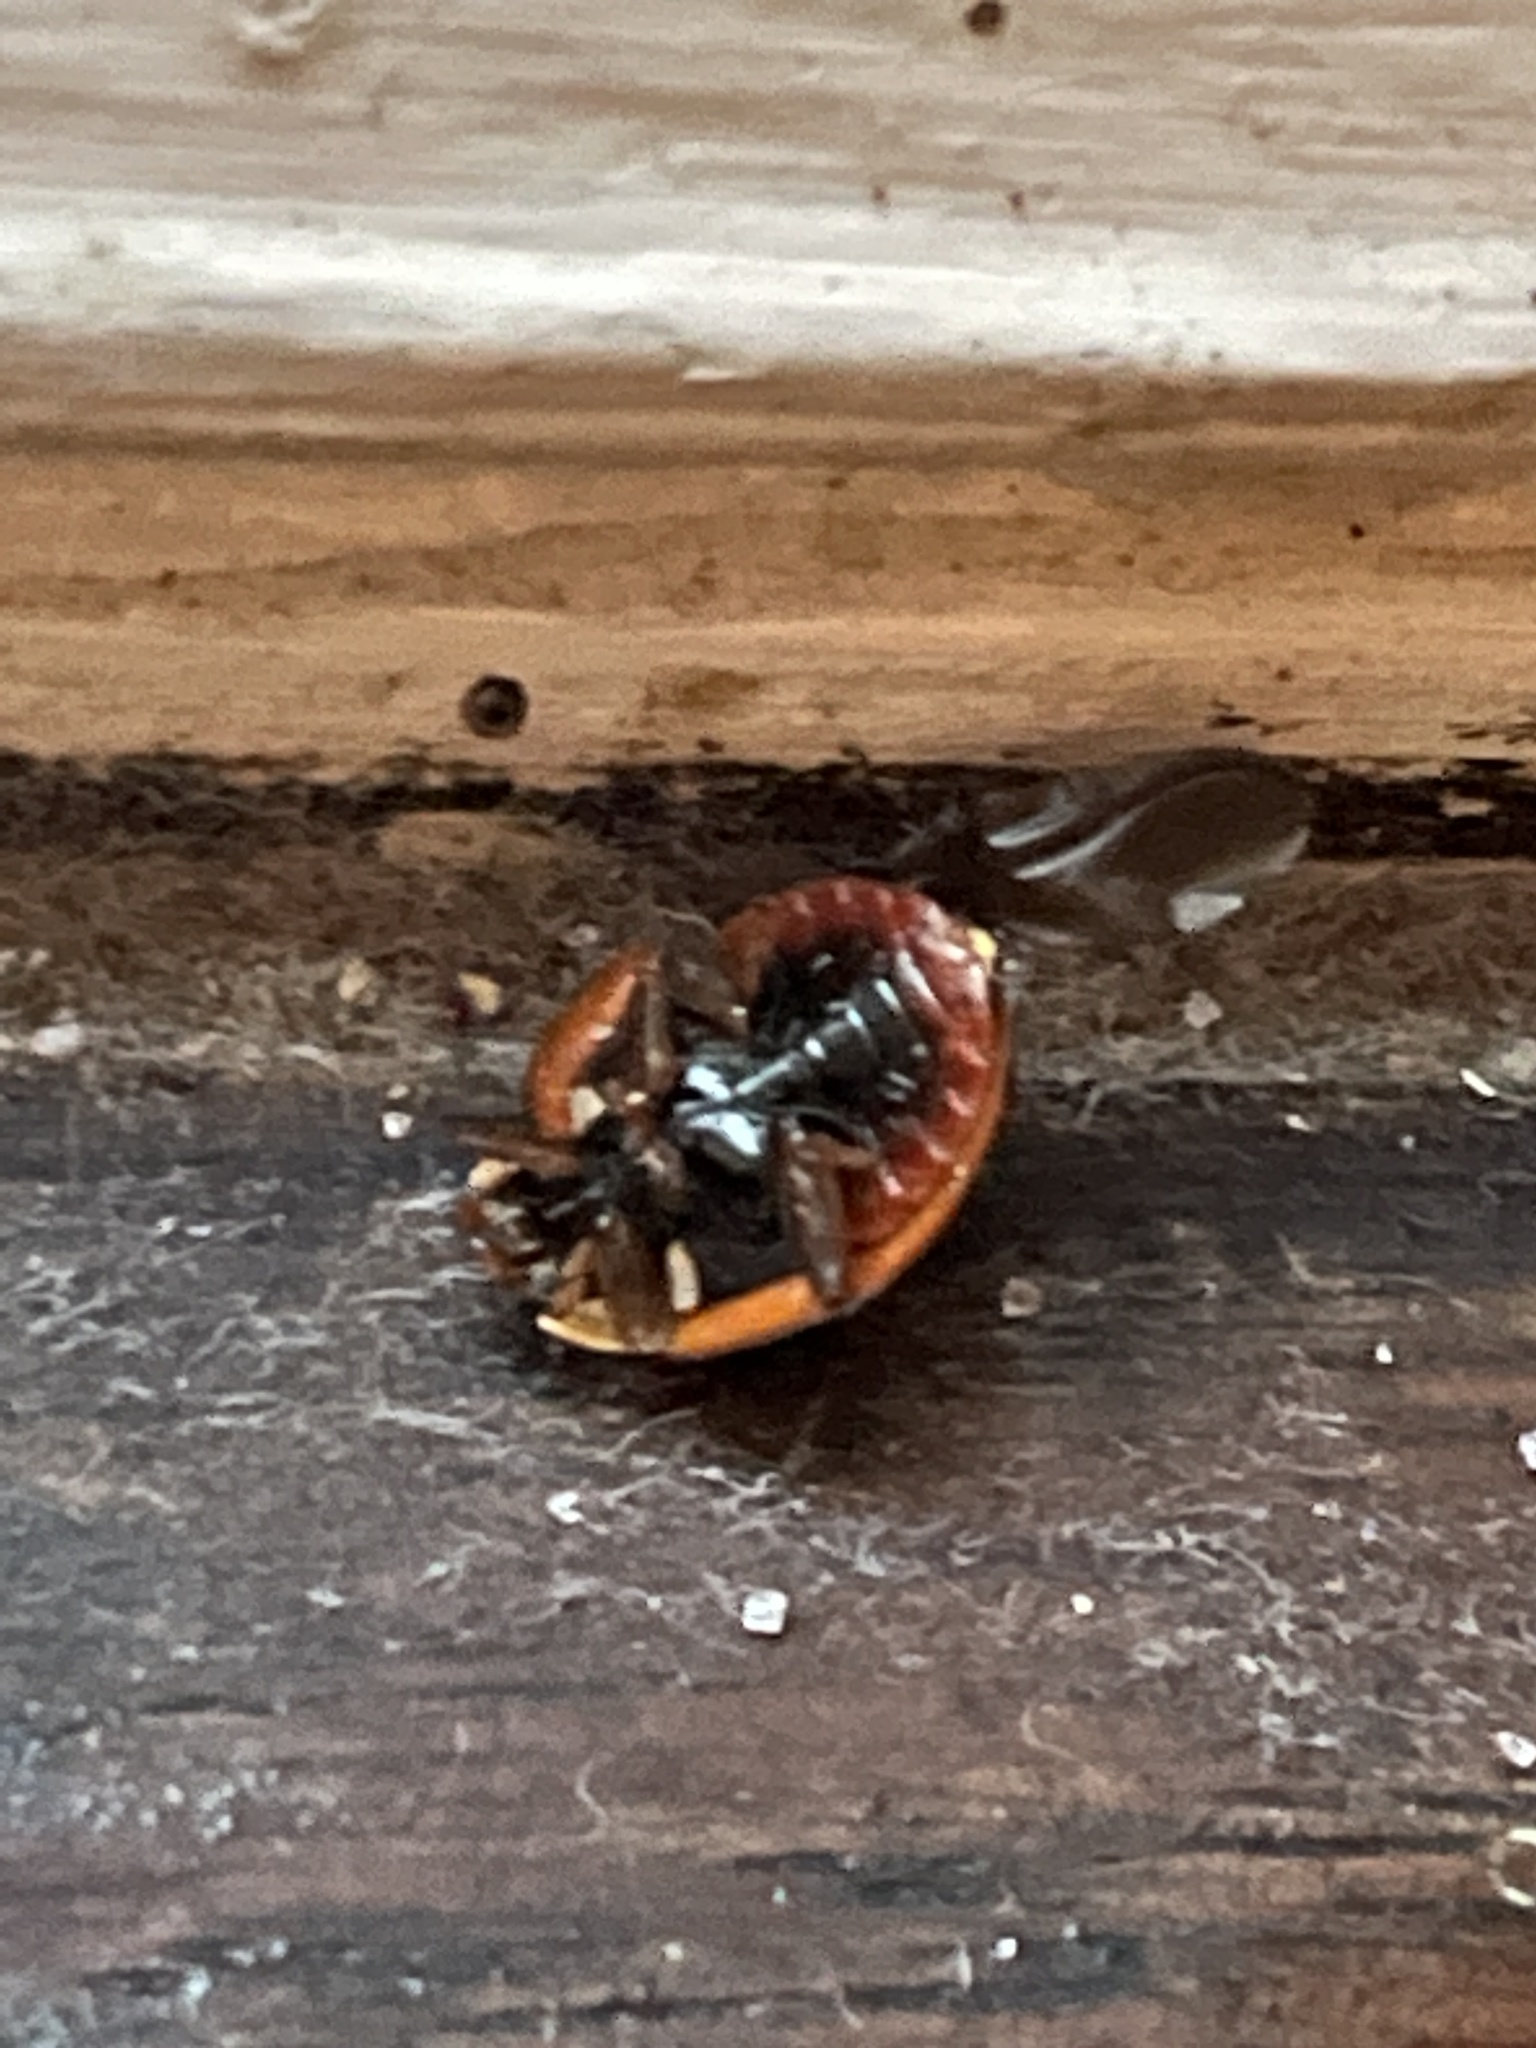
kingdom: Animalia
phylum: Arthropoda
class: Insecta
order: Coleoptera
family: Coccinellidae
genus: Harmonia
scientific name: Harmonia axyridis
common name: Harlequin ladybird
